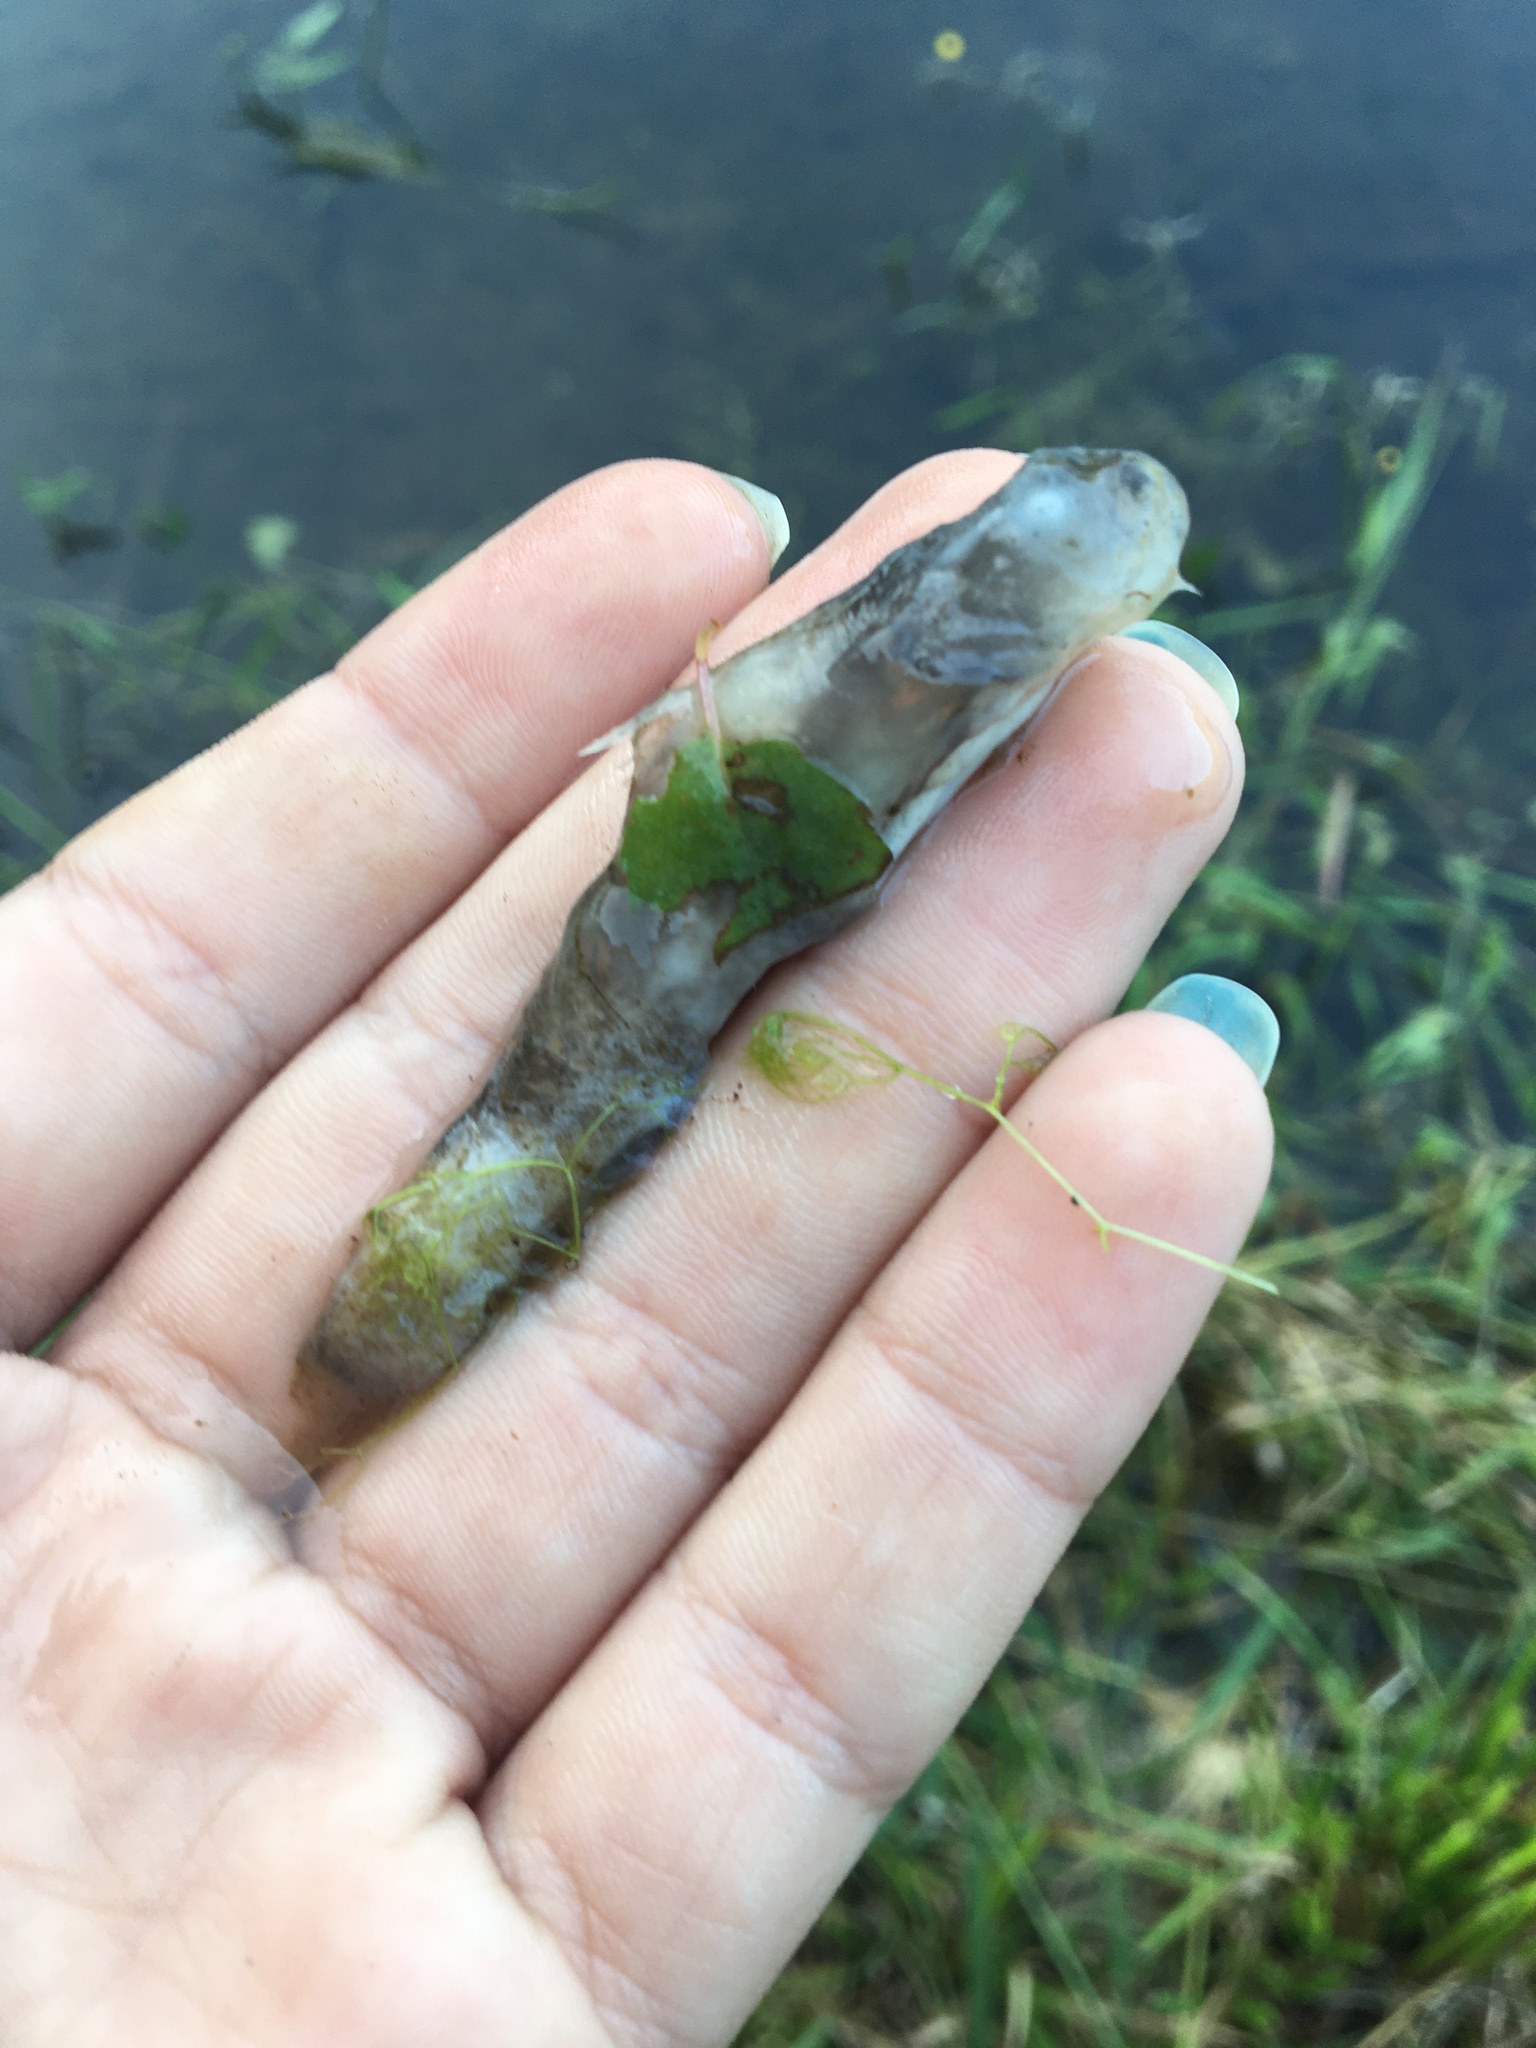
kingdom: Animalia
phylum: Chordata
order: Siluriformes
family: Ictaluridae
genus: Ameiurus
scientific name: Ameiurus
